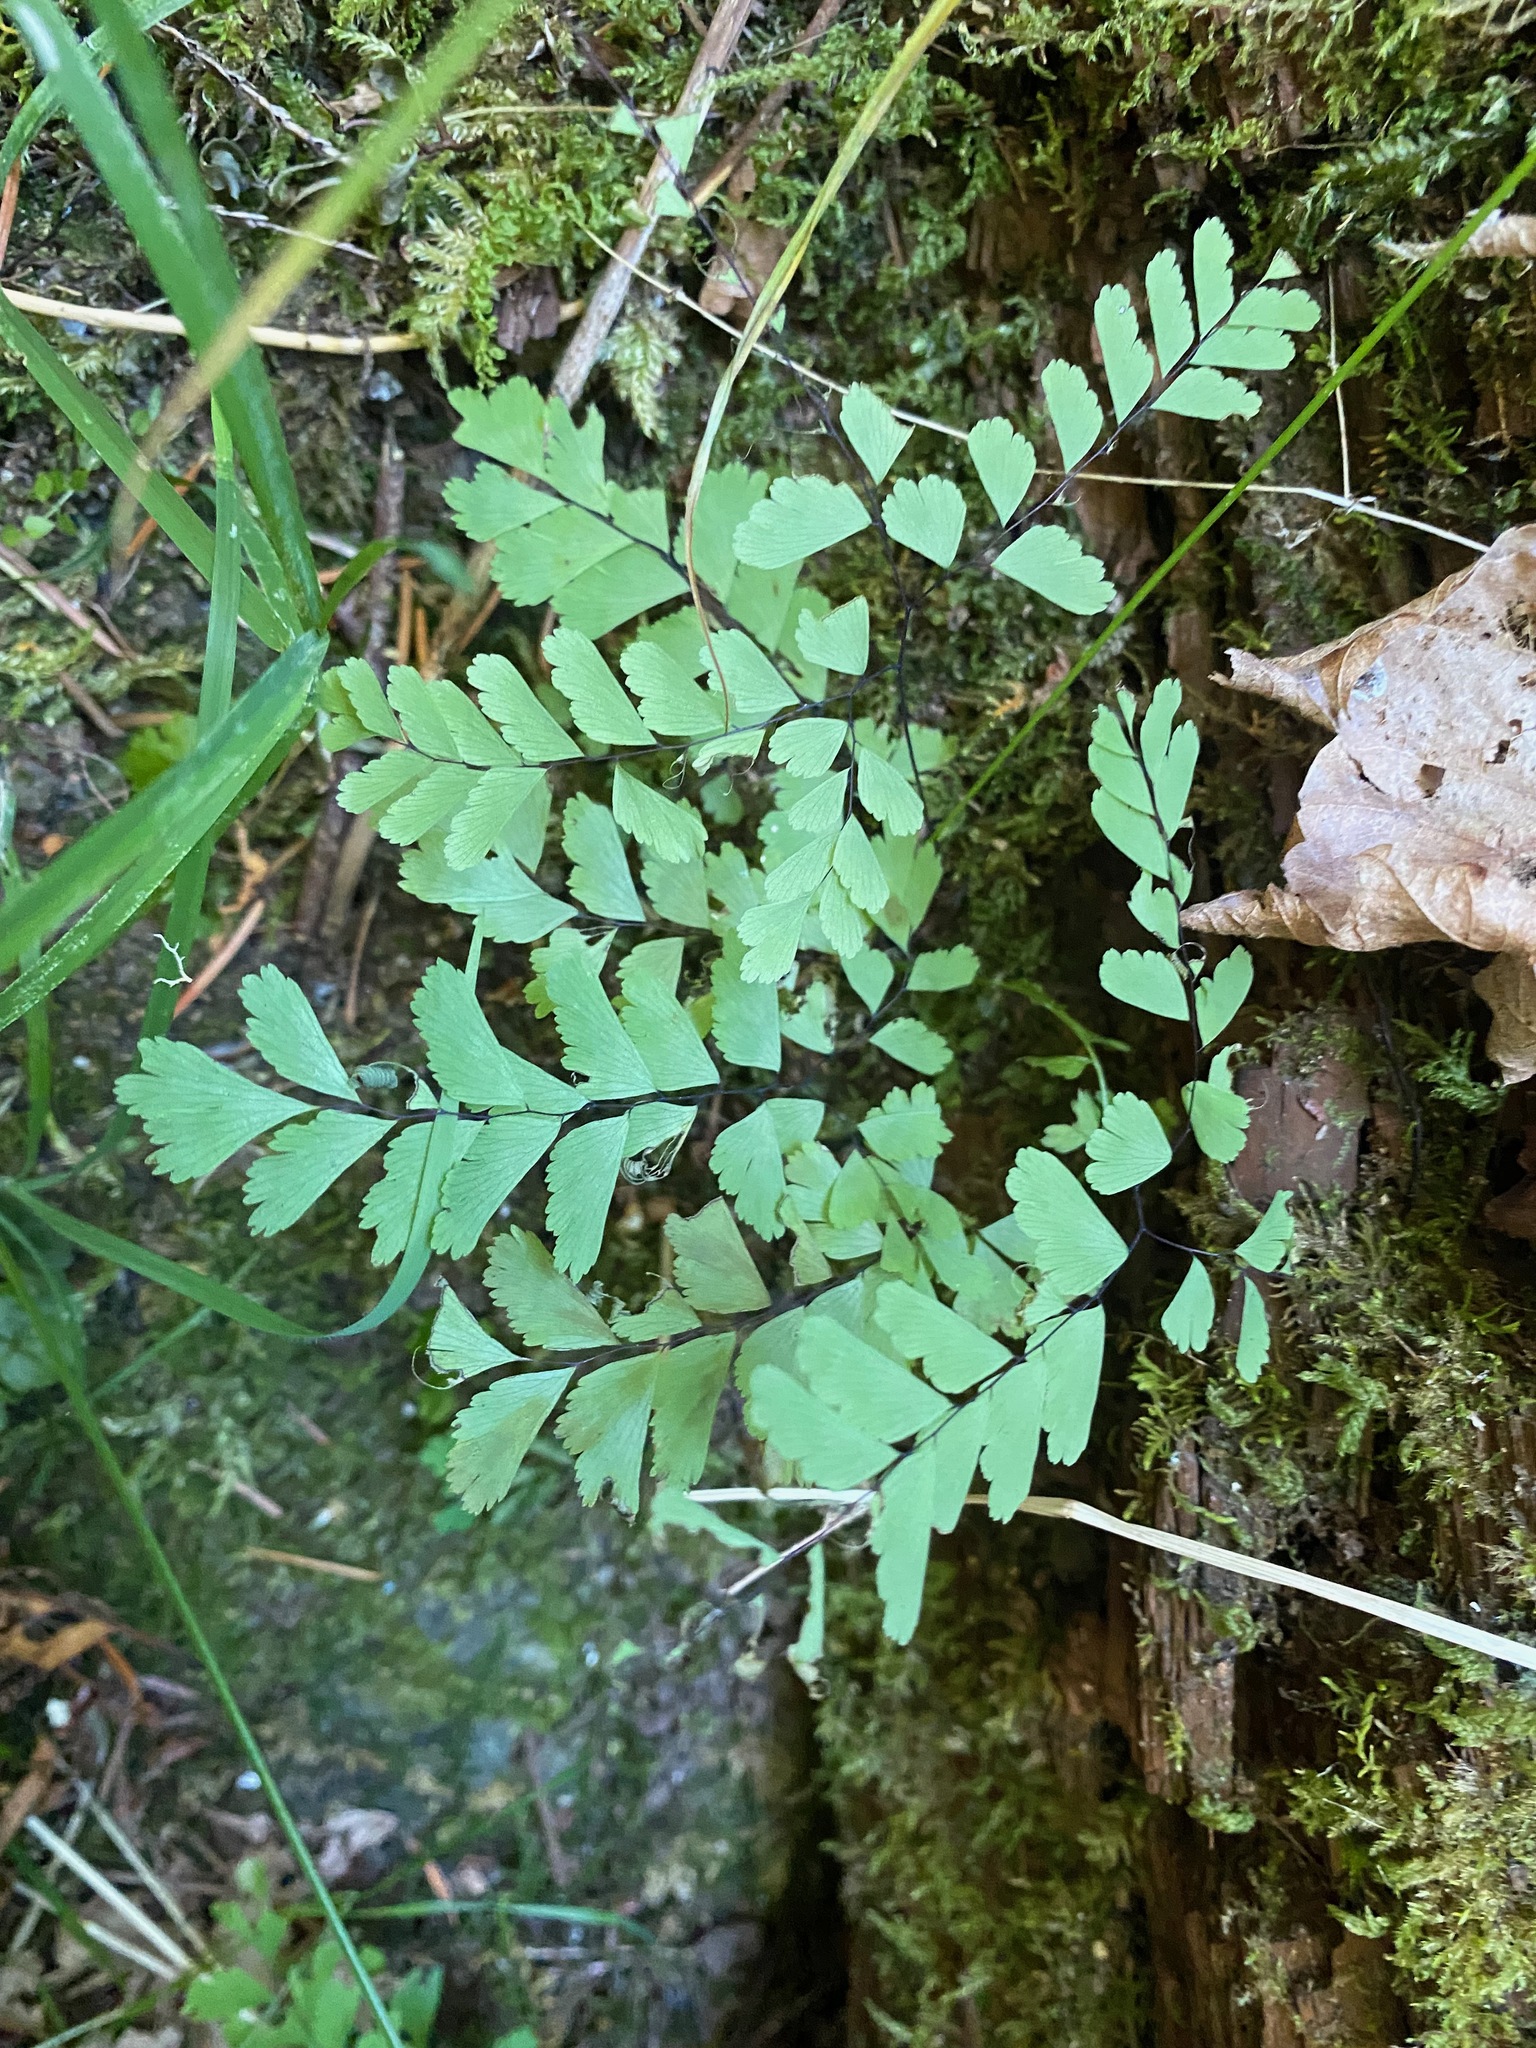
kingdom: Plantae
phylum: Tracheophyta
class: Polypodiopsida
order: Polypodiales
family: Pteridaceae
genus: Adiantum
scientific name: Adiantum aleuticum
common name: Aleutian maidenhair fern
